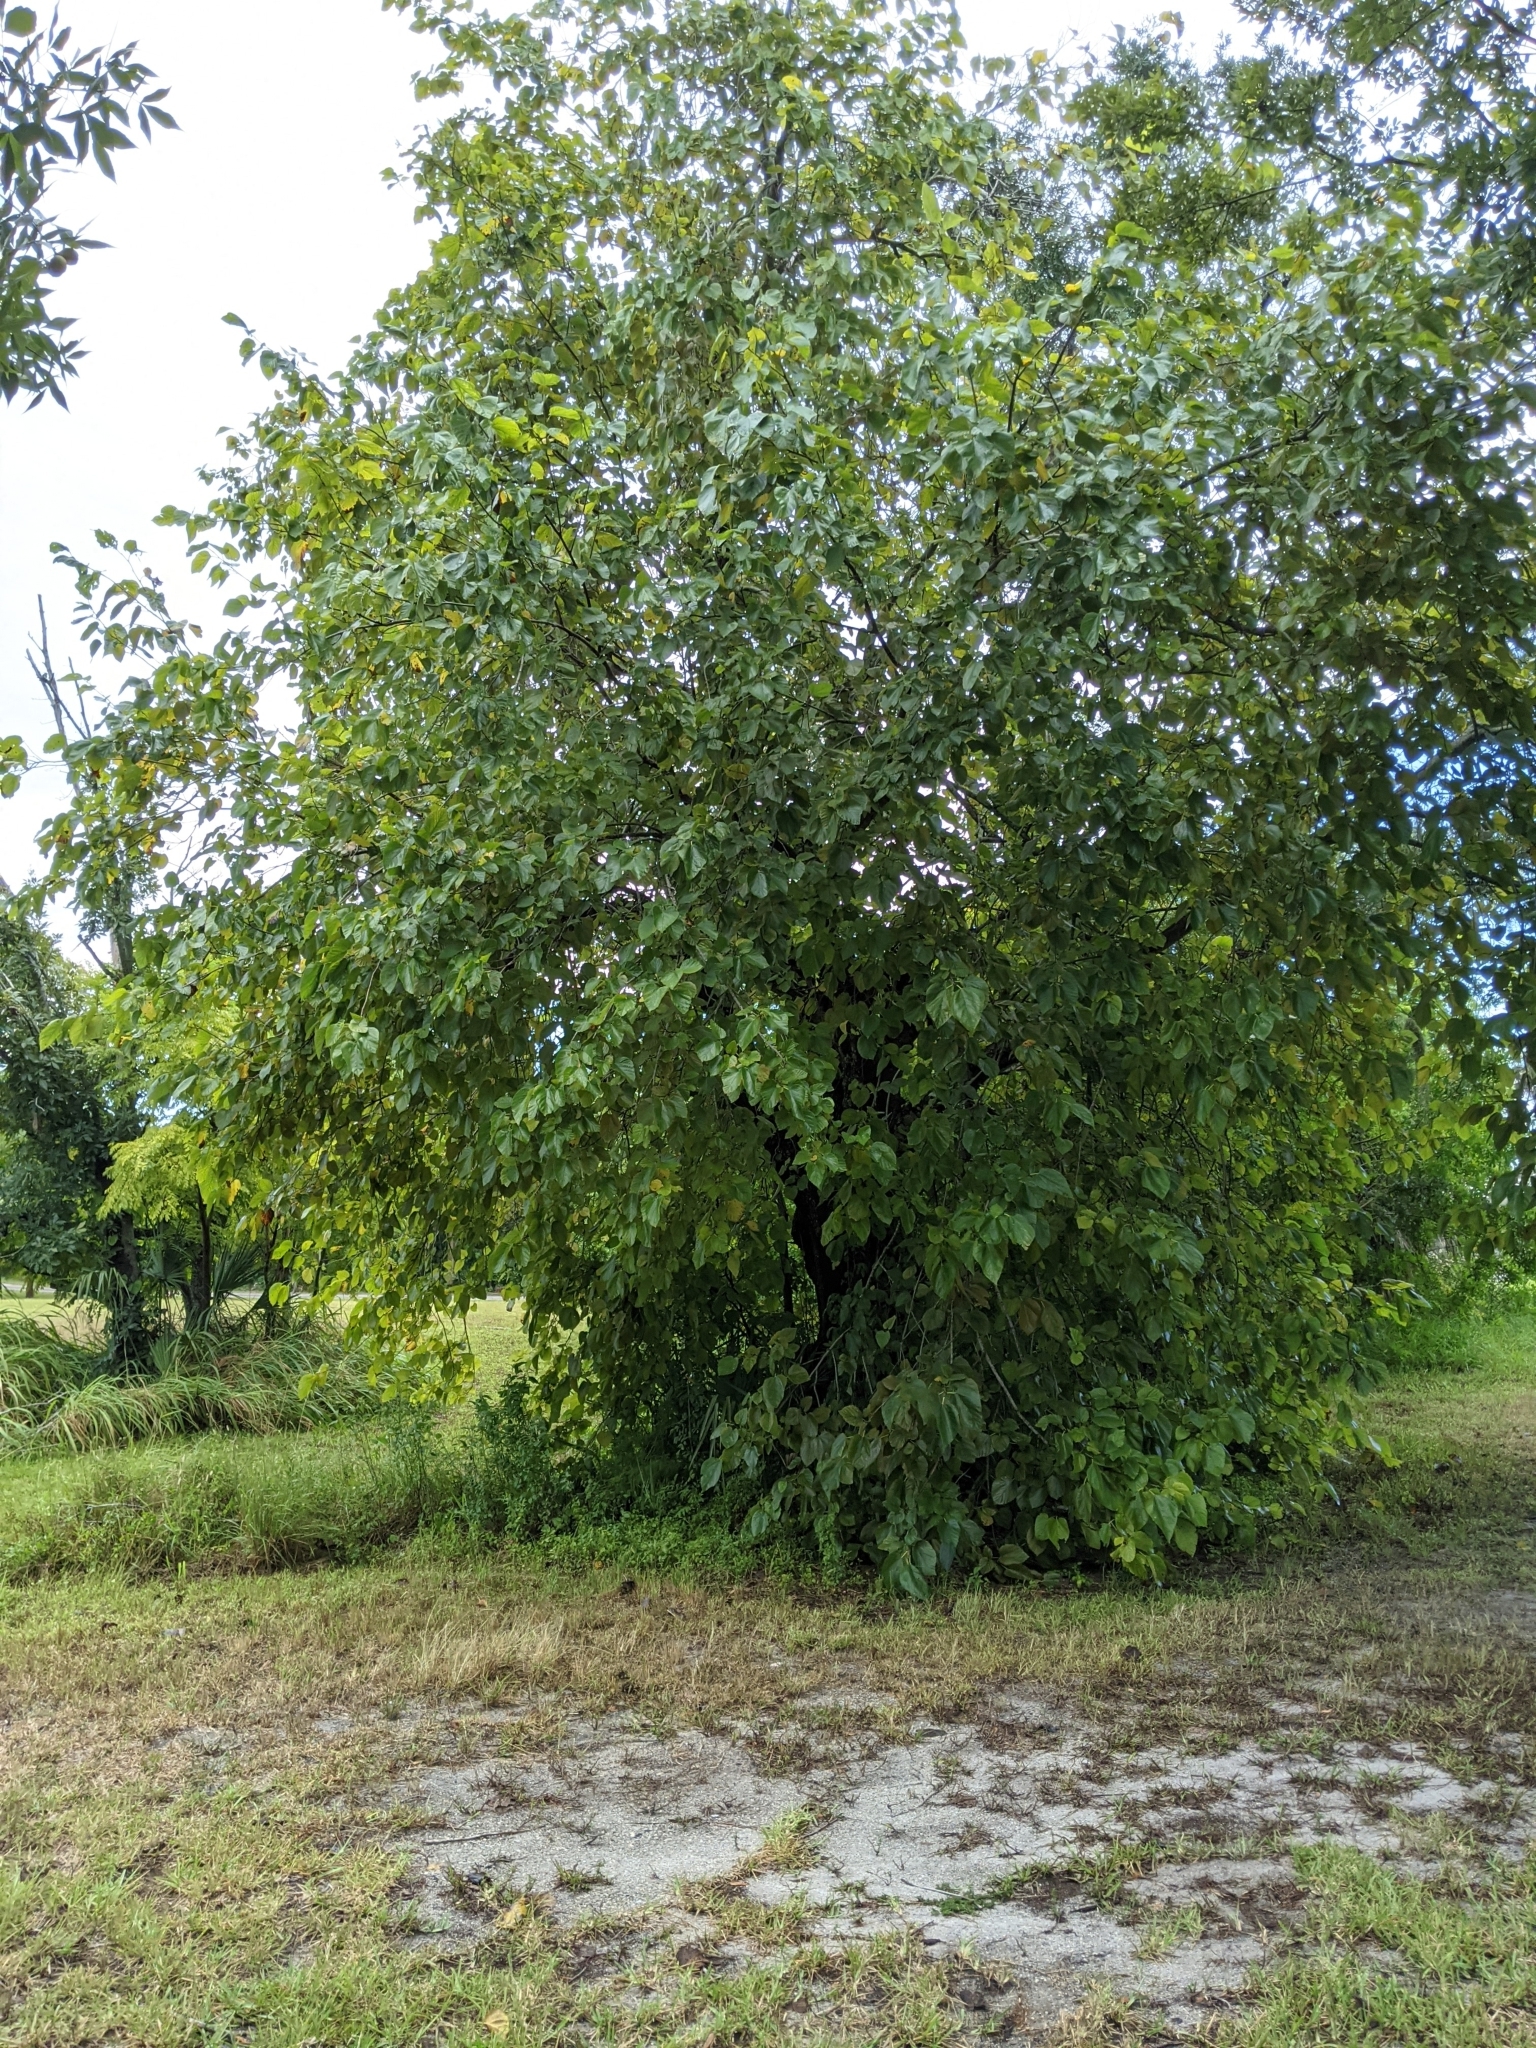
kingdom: Plantae
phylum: Tracheophyta
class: Magnoliopsida
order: Rosales
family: Moraceae
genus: Morus
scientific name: Morus rubra
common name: Red mulberry
